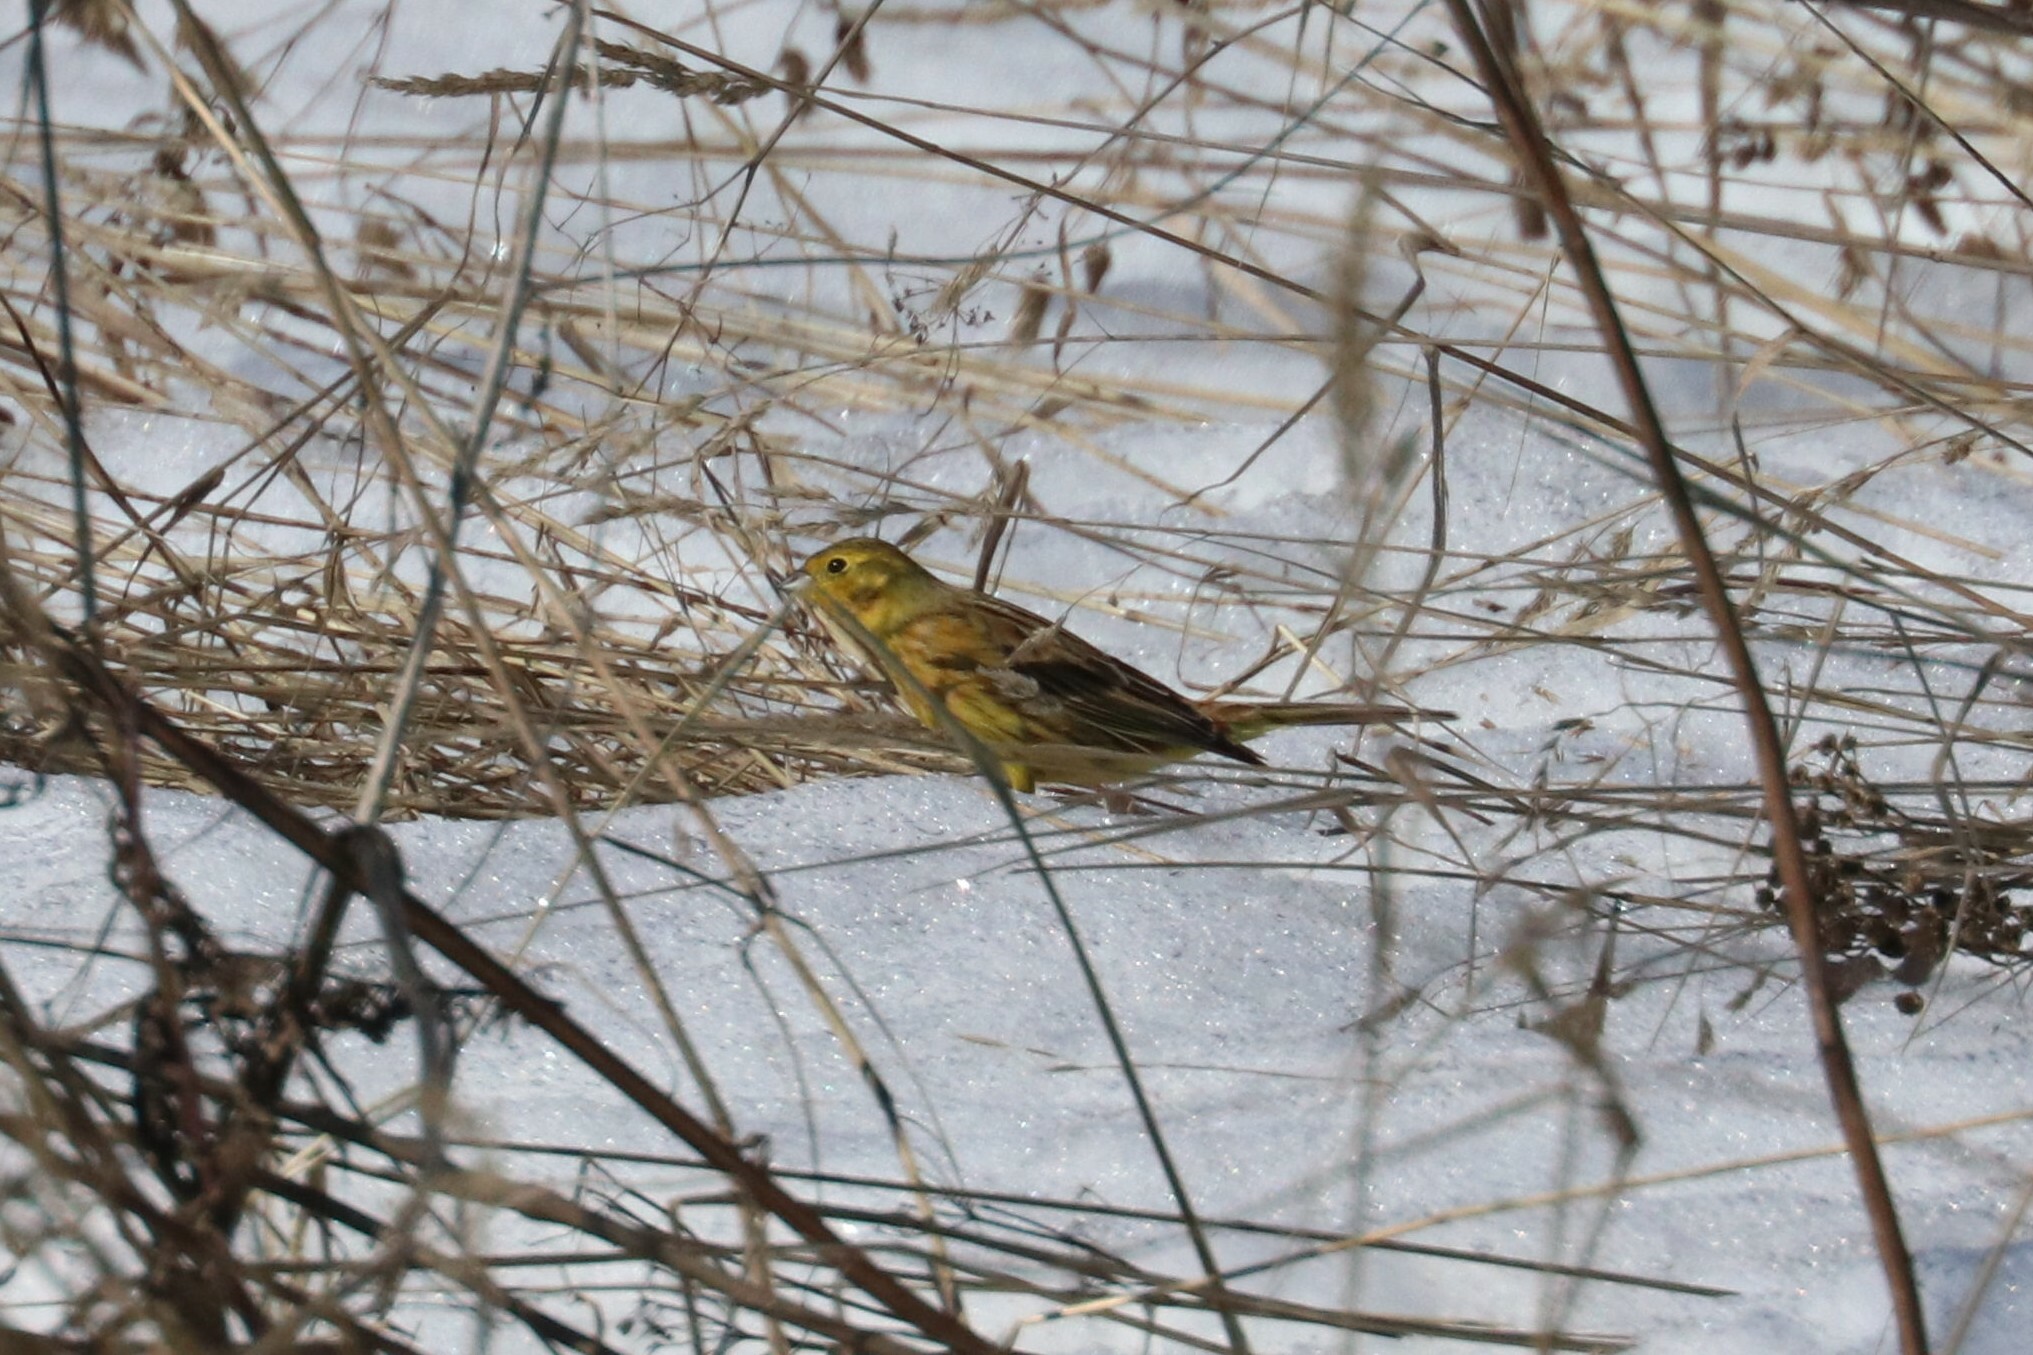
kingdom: Animalia
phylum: Chordata
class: Aves
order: Passeriformes
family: Emberizidae
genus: Emberiza
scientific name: Emberiza citrinella
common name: Yellowhammer
